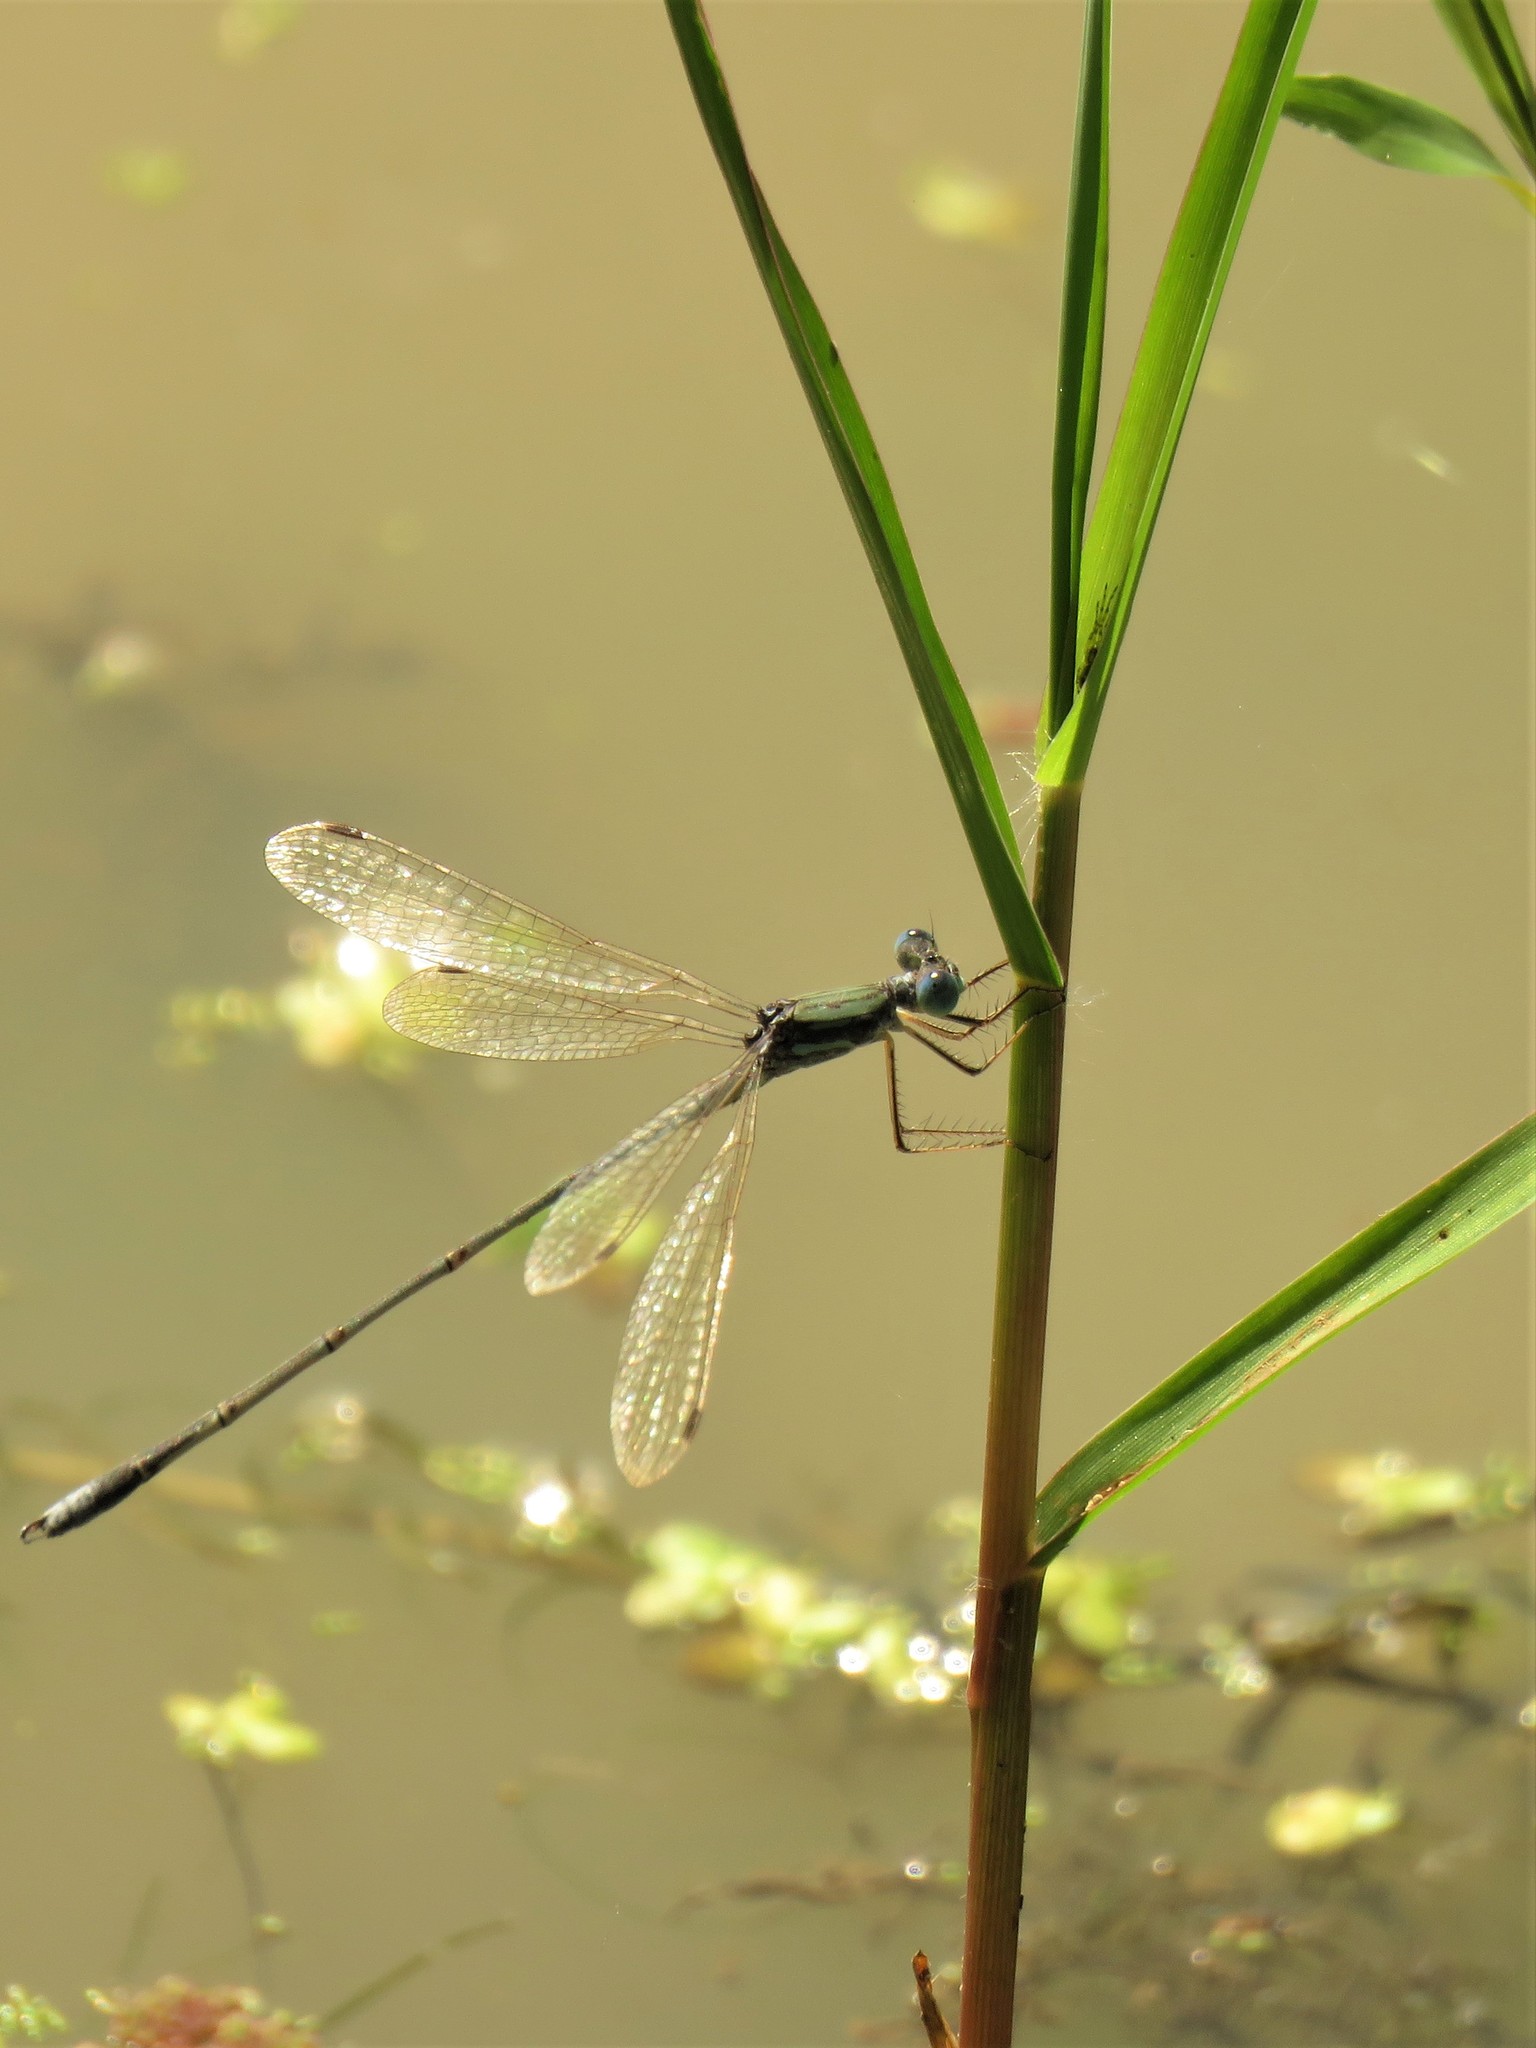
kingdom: Animalia
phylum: Arthropoda
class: Insecta
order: Odonata
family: Lestidae
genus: Lestes
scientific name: Lestes pallidus
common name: Pallid spreadwing
